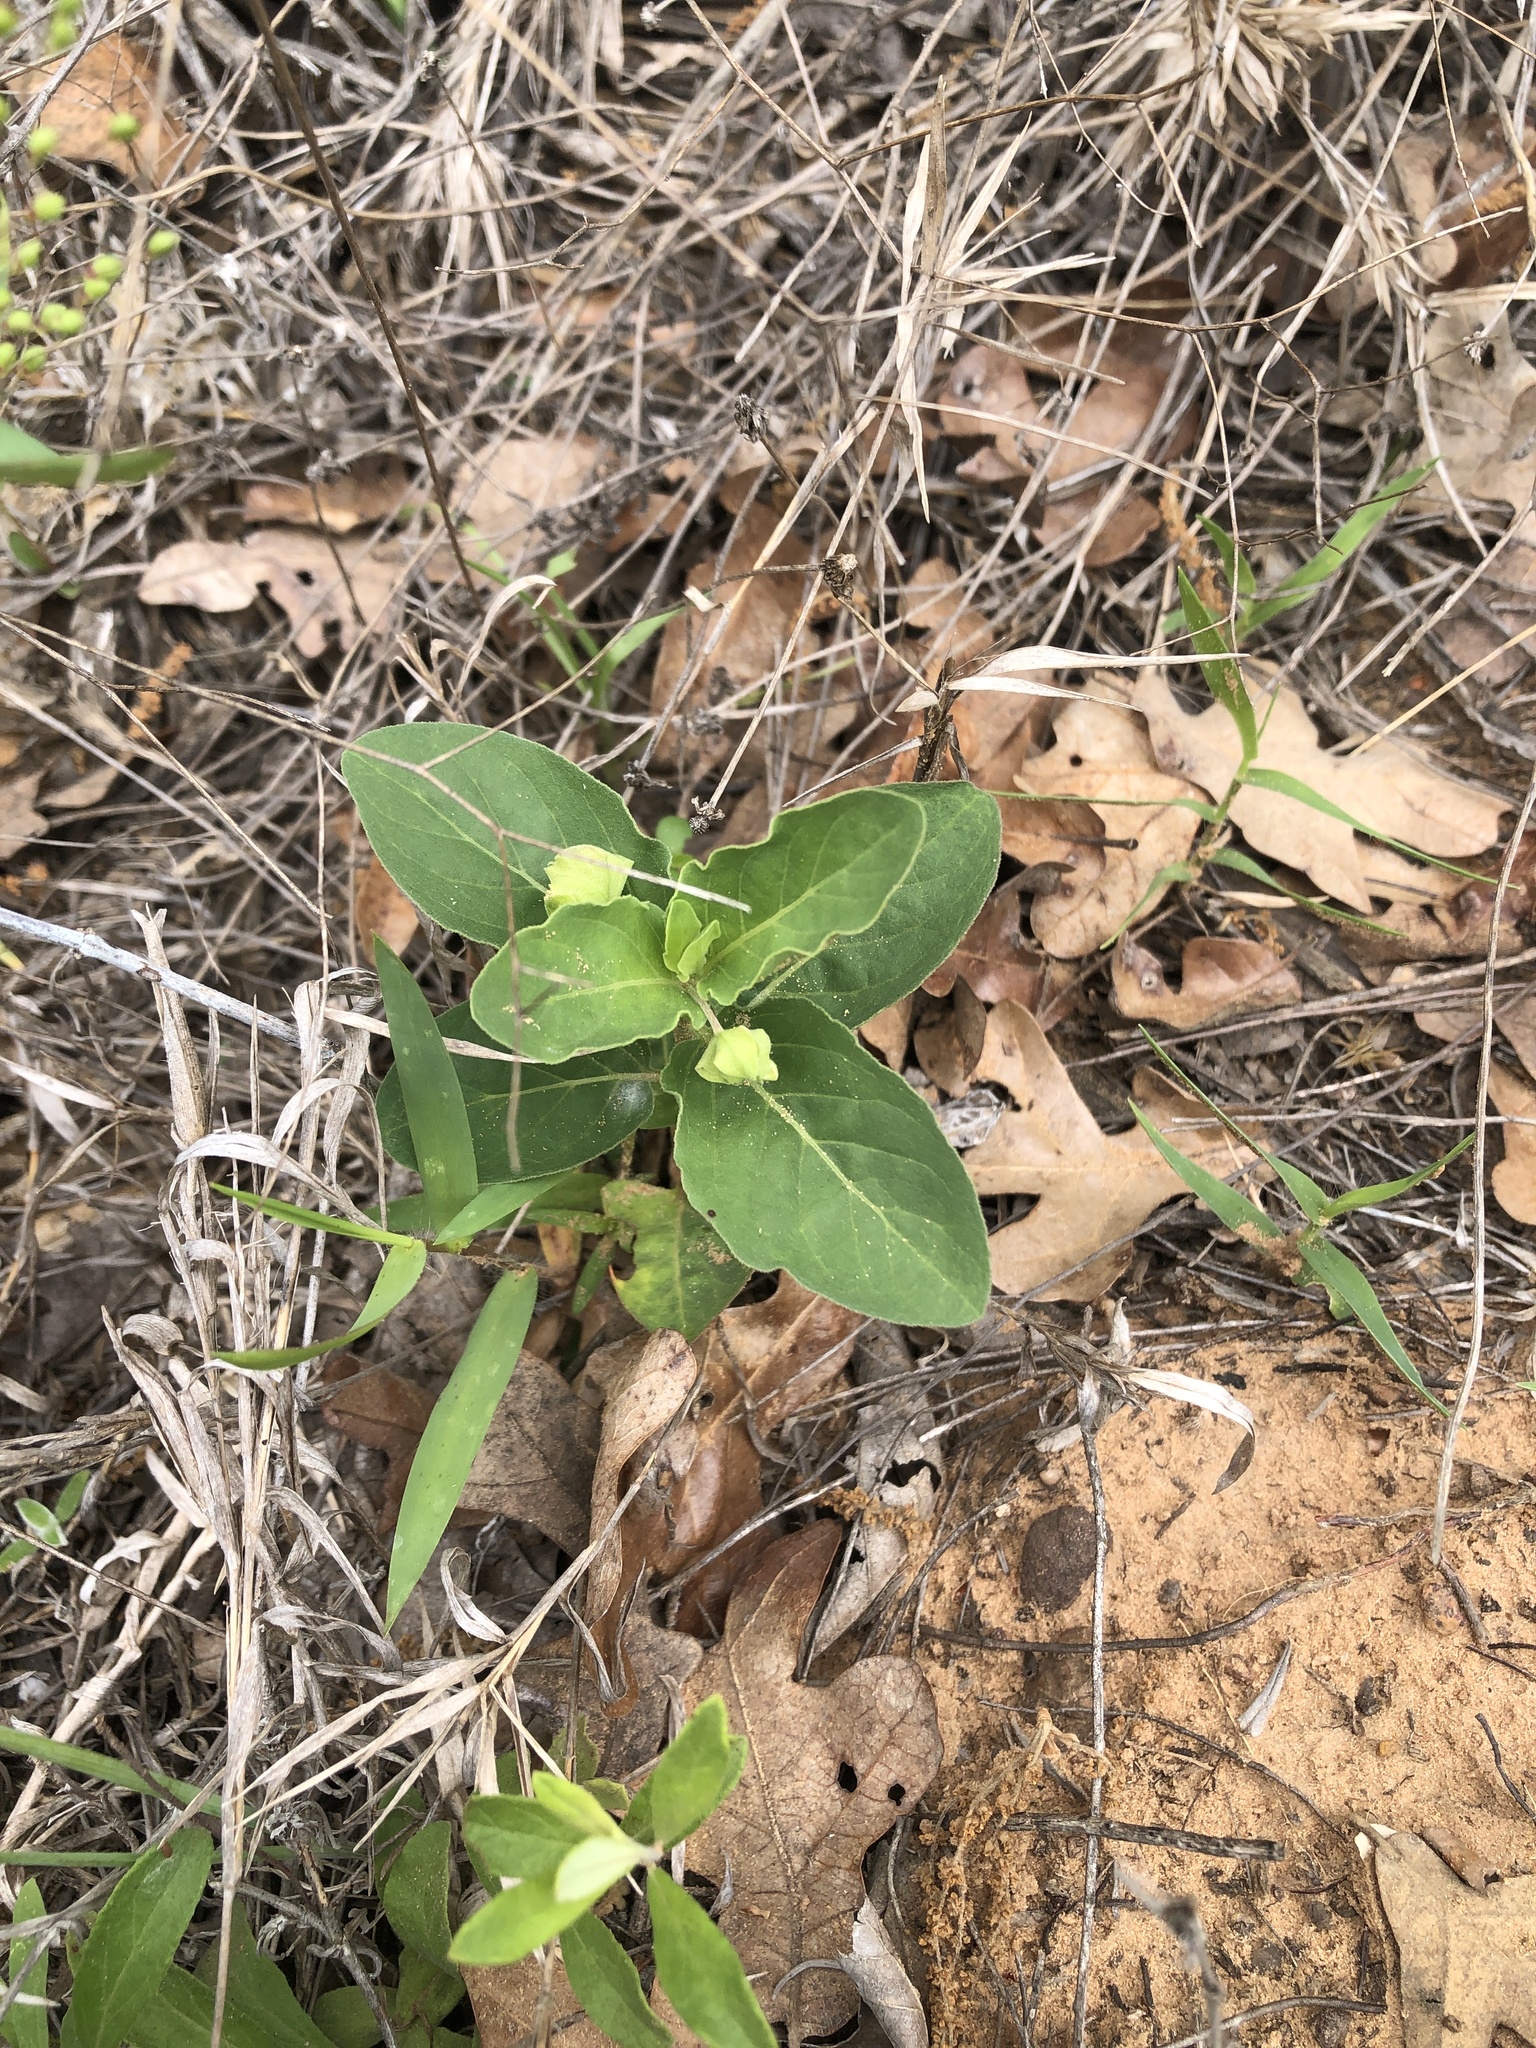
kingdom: Plantae
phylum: Tracheophyta
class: Magnoliopsida
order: Caryophyllales
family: Nyctaginaceae
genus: Mirabilis
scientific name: Mirabilis nyctaginea
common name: Umbrella wort
